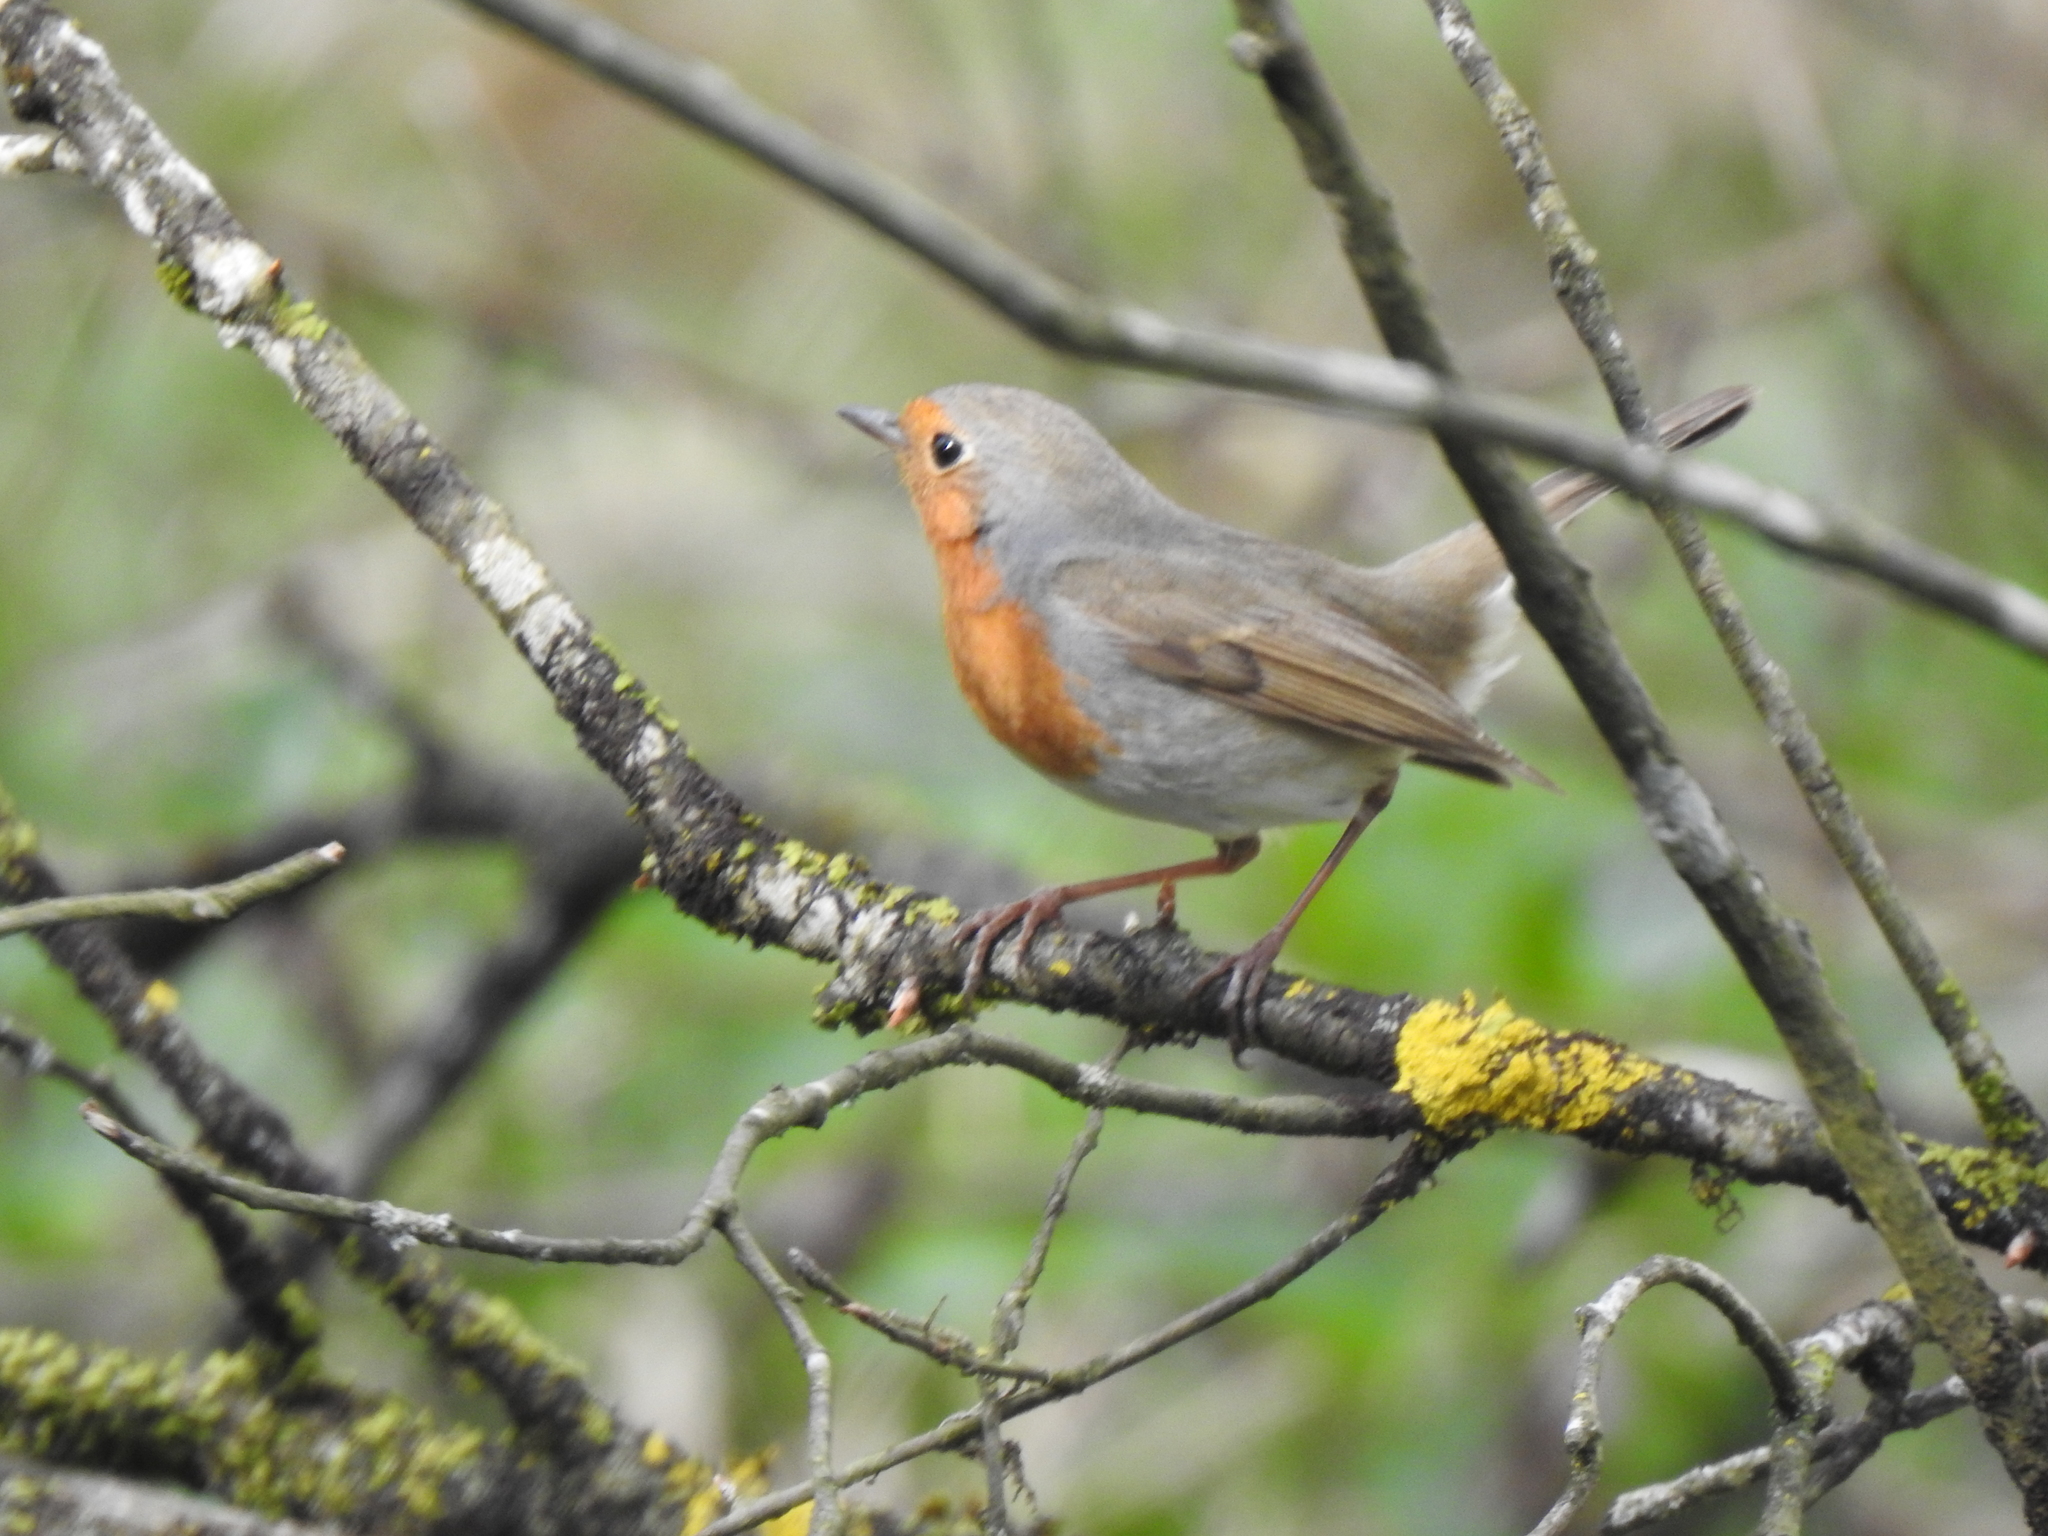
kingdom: Animalia
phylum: Chordata
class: Aves
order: Passeriformes
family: Muscicapidae
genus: Erithacus
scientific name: Erithacus rubecula
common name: European robin
